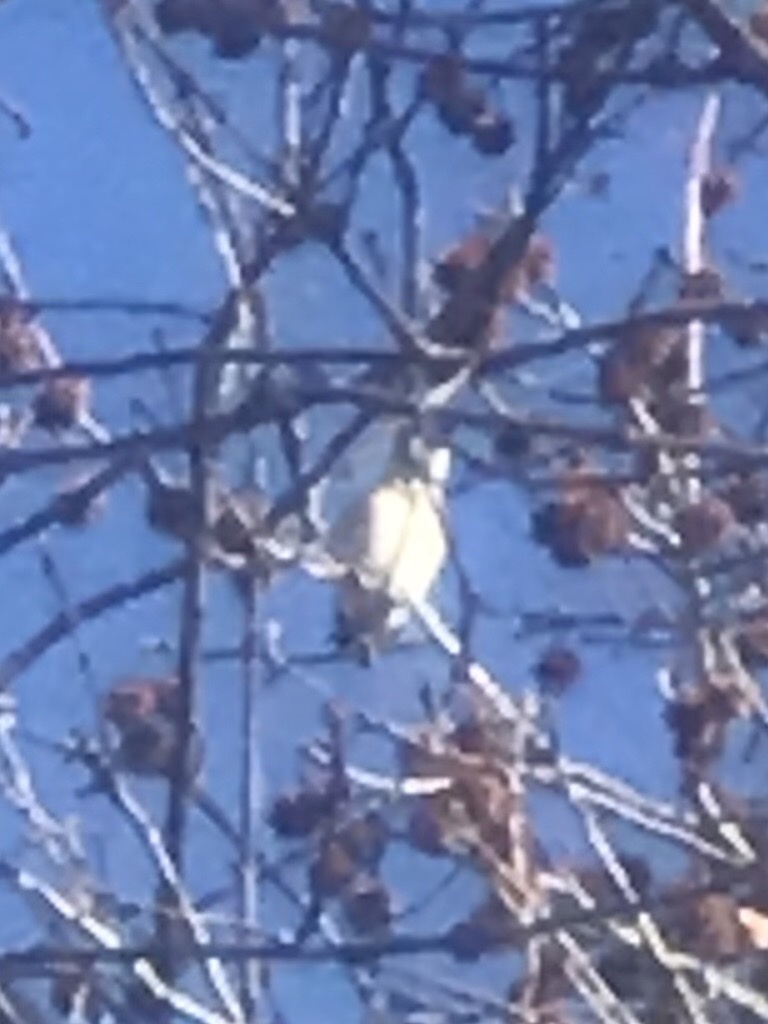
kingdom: Animalia
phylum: Chordata
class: Aves
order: Passeriformes
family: Corvidae
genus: Cyanocitta
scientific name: Cyanocitta cristata
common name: Blue jay
